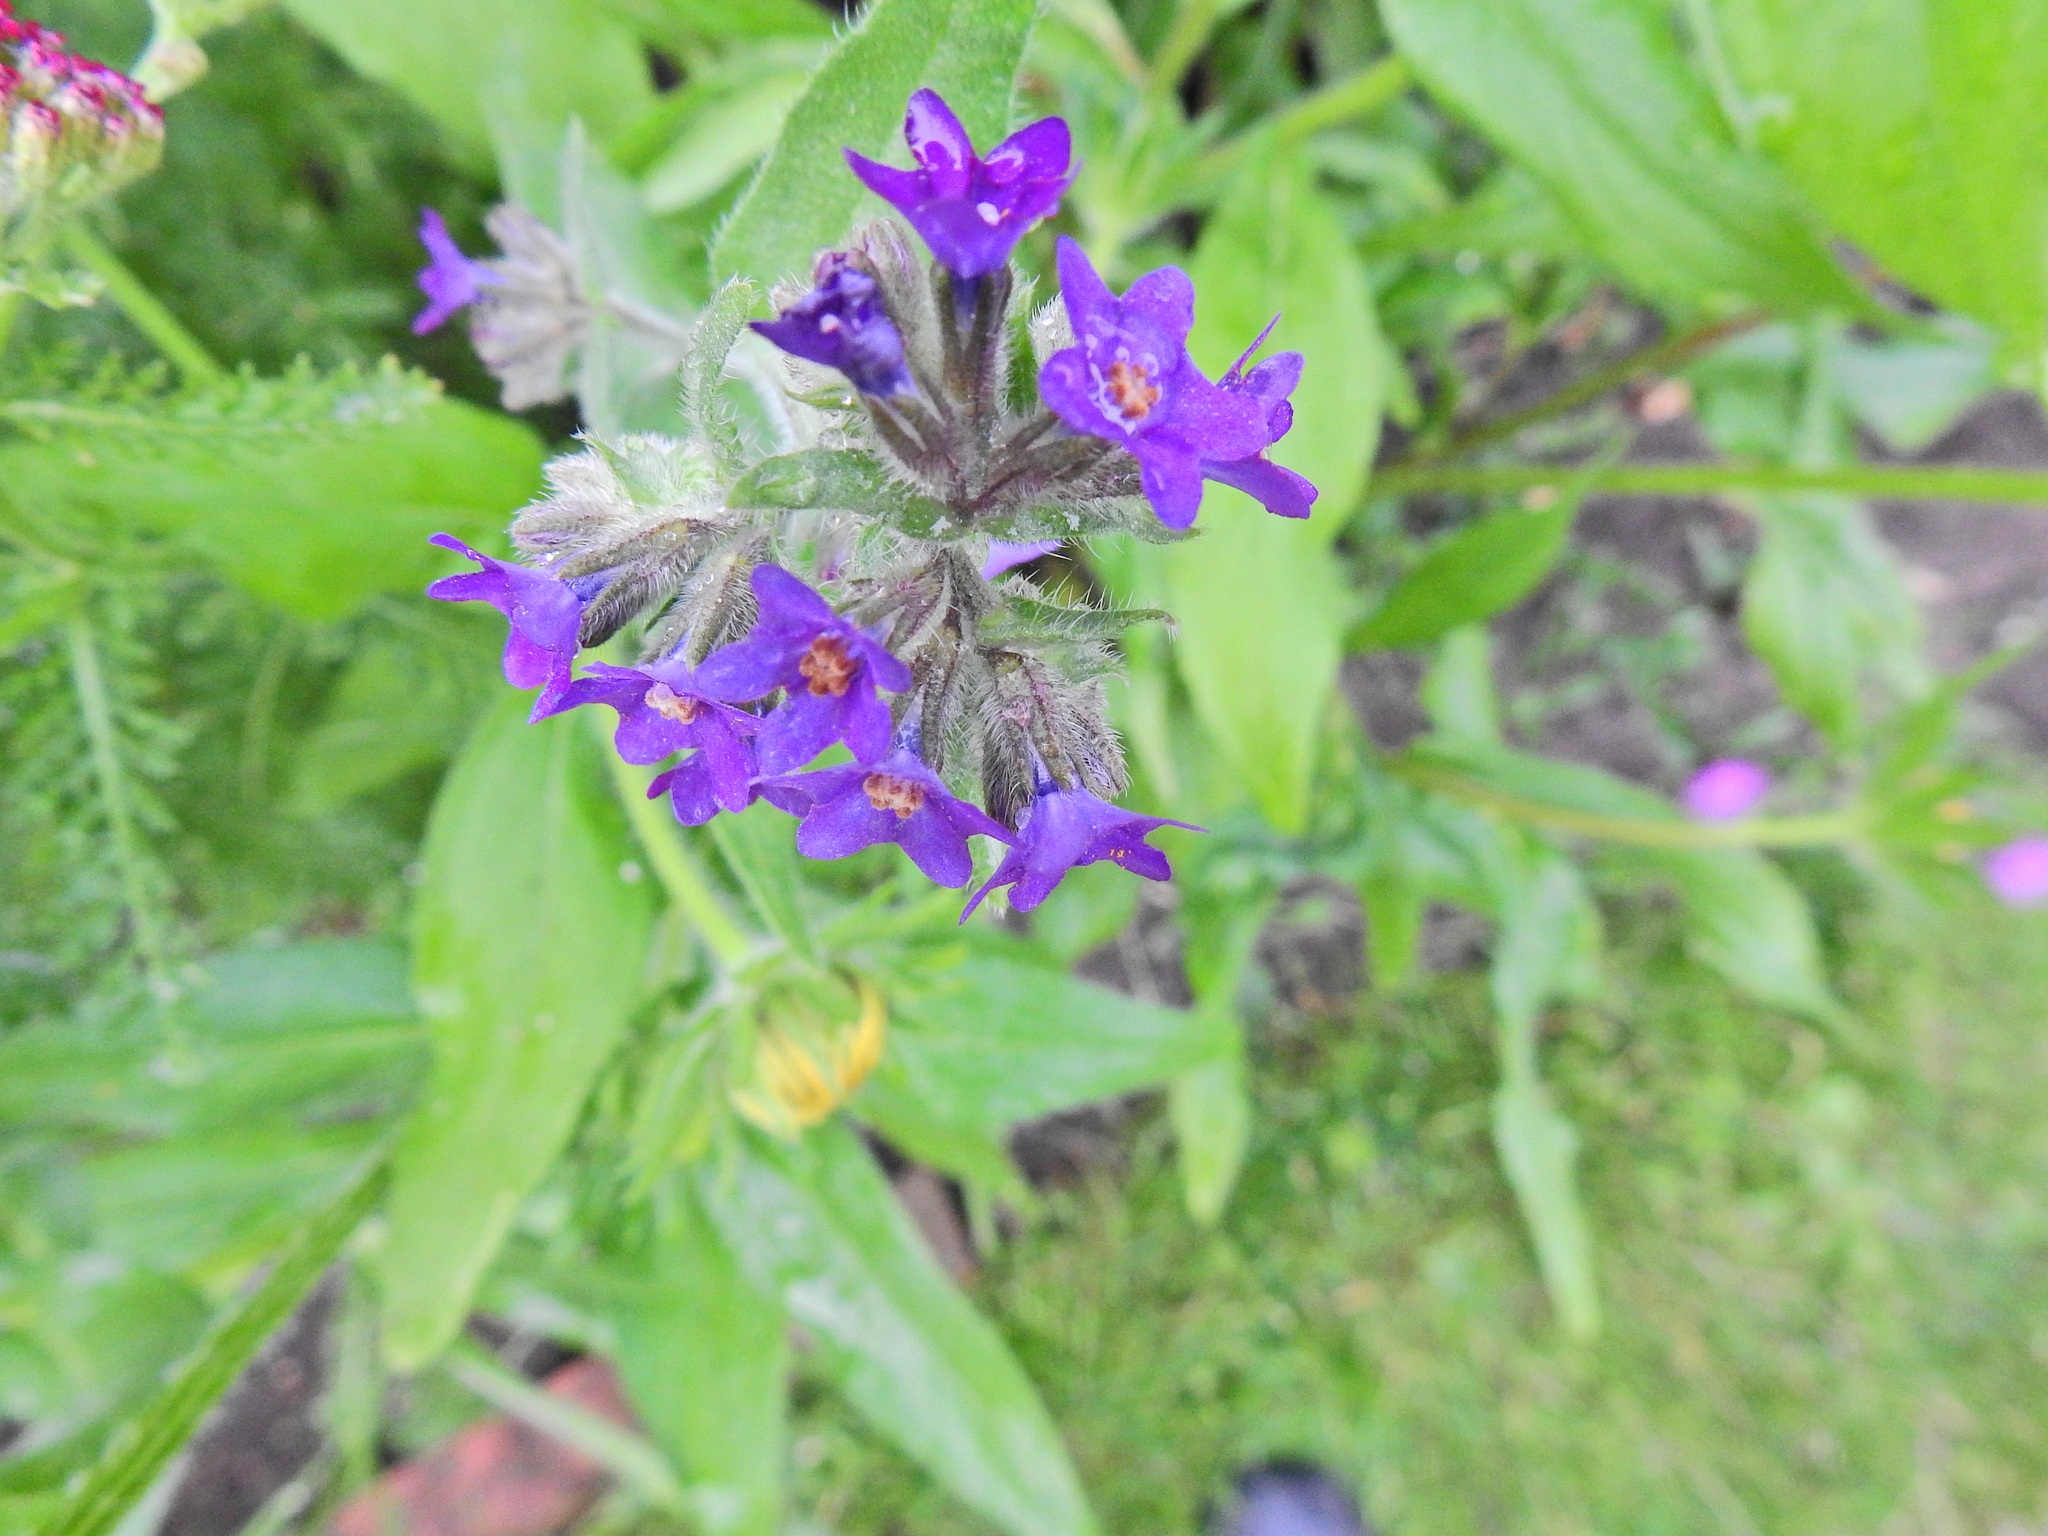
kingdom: Plantae
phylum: Tracheophyta
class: Magnoliopsida
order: Boraginales
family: Boraginaceae
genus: Anchusa
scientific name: Anchusa officinalis
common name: Alkanet
